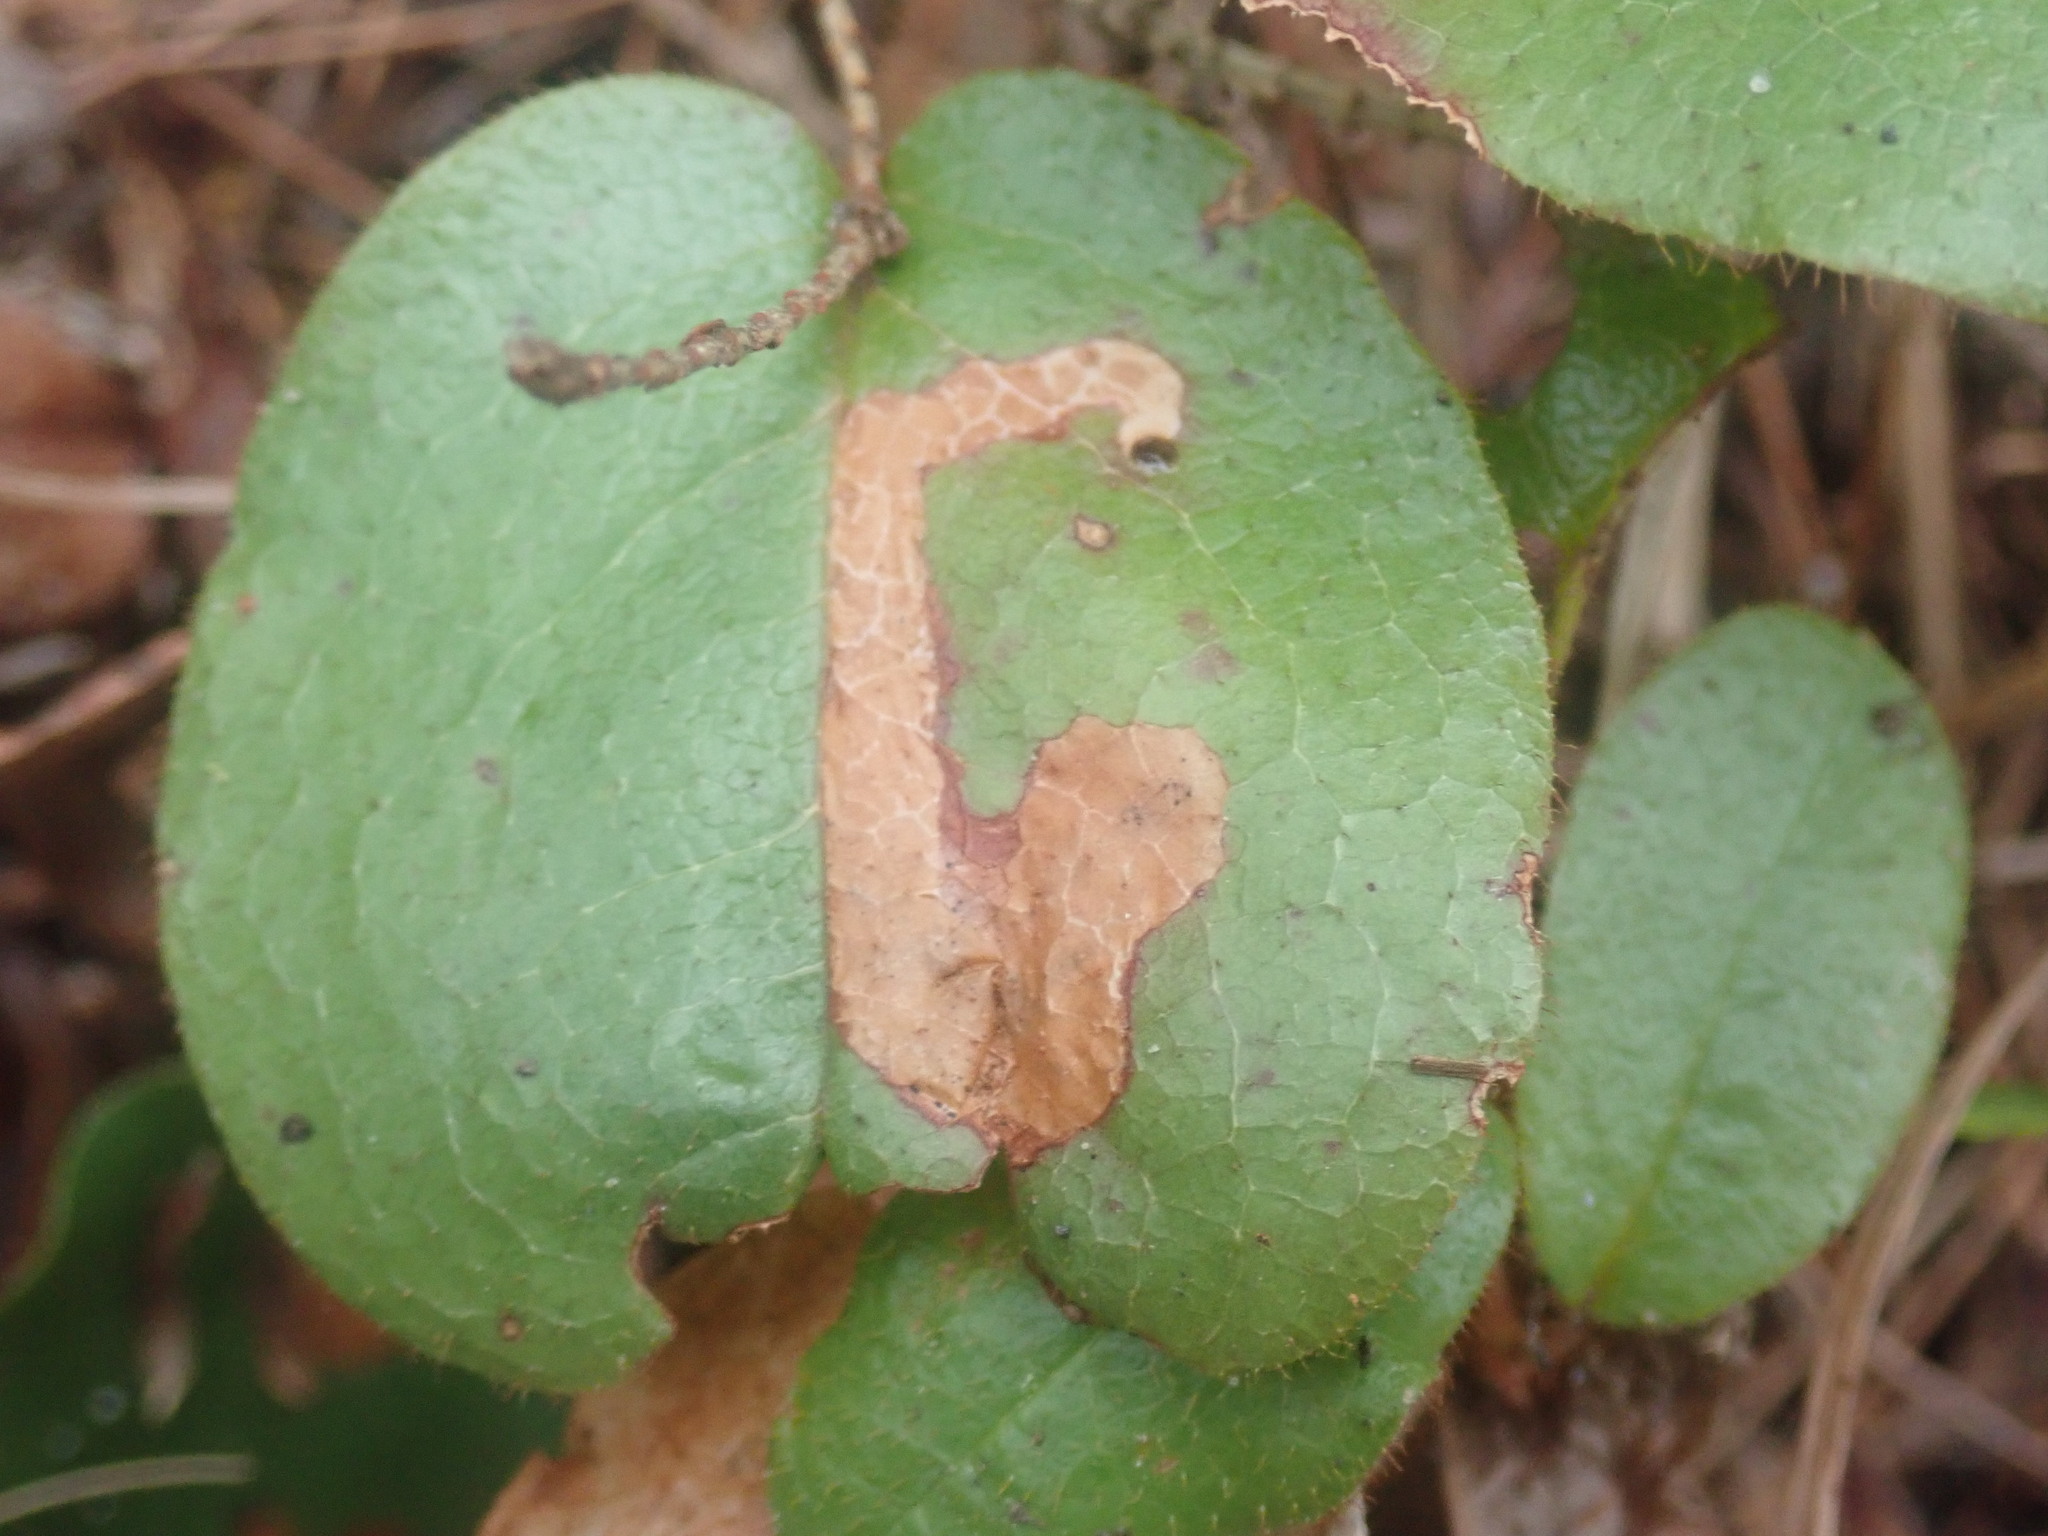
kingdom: Animalia
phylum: Arthropoda
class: Insecta
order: Coleoptera
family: Buprestidae
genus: Brachys
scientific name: Brachys
